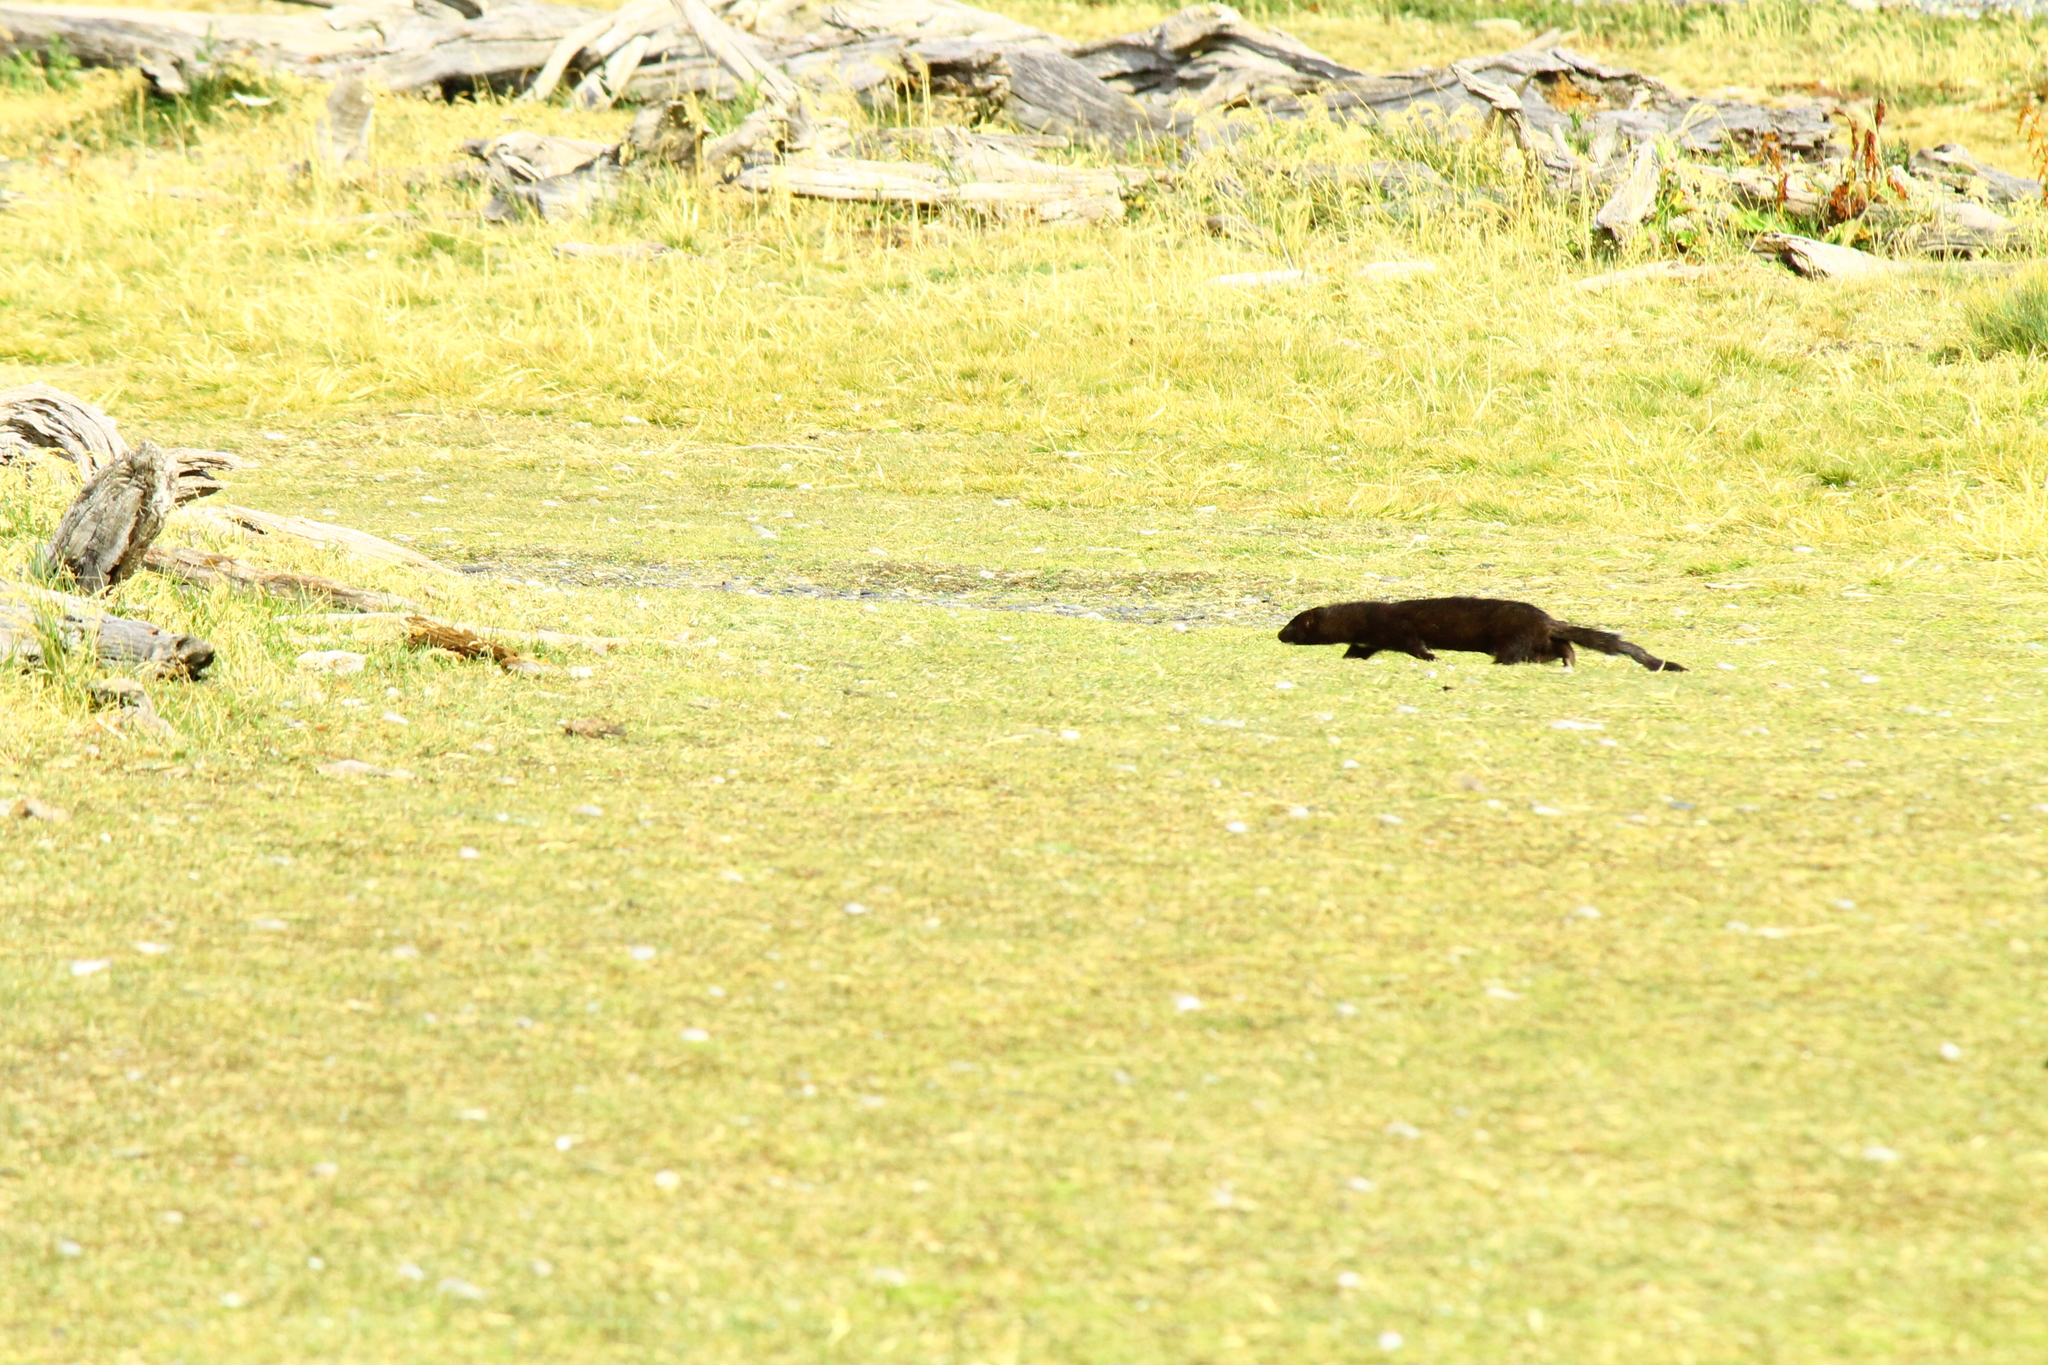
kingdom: Animalia
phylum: Chordata
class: Mammalia
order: Carnivora
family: Mustelidae
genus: Mustela
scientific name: Mustela
